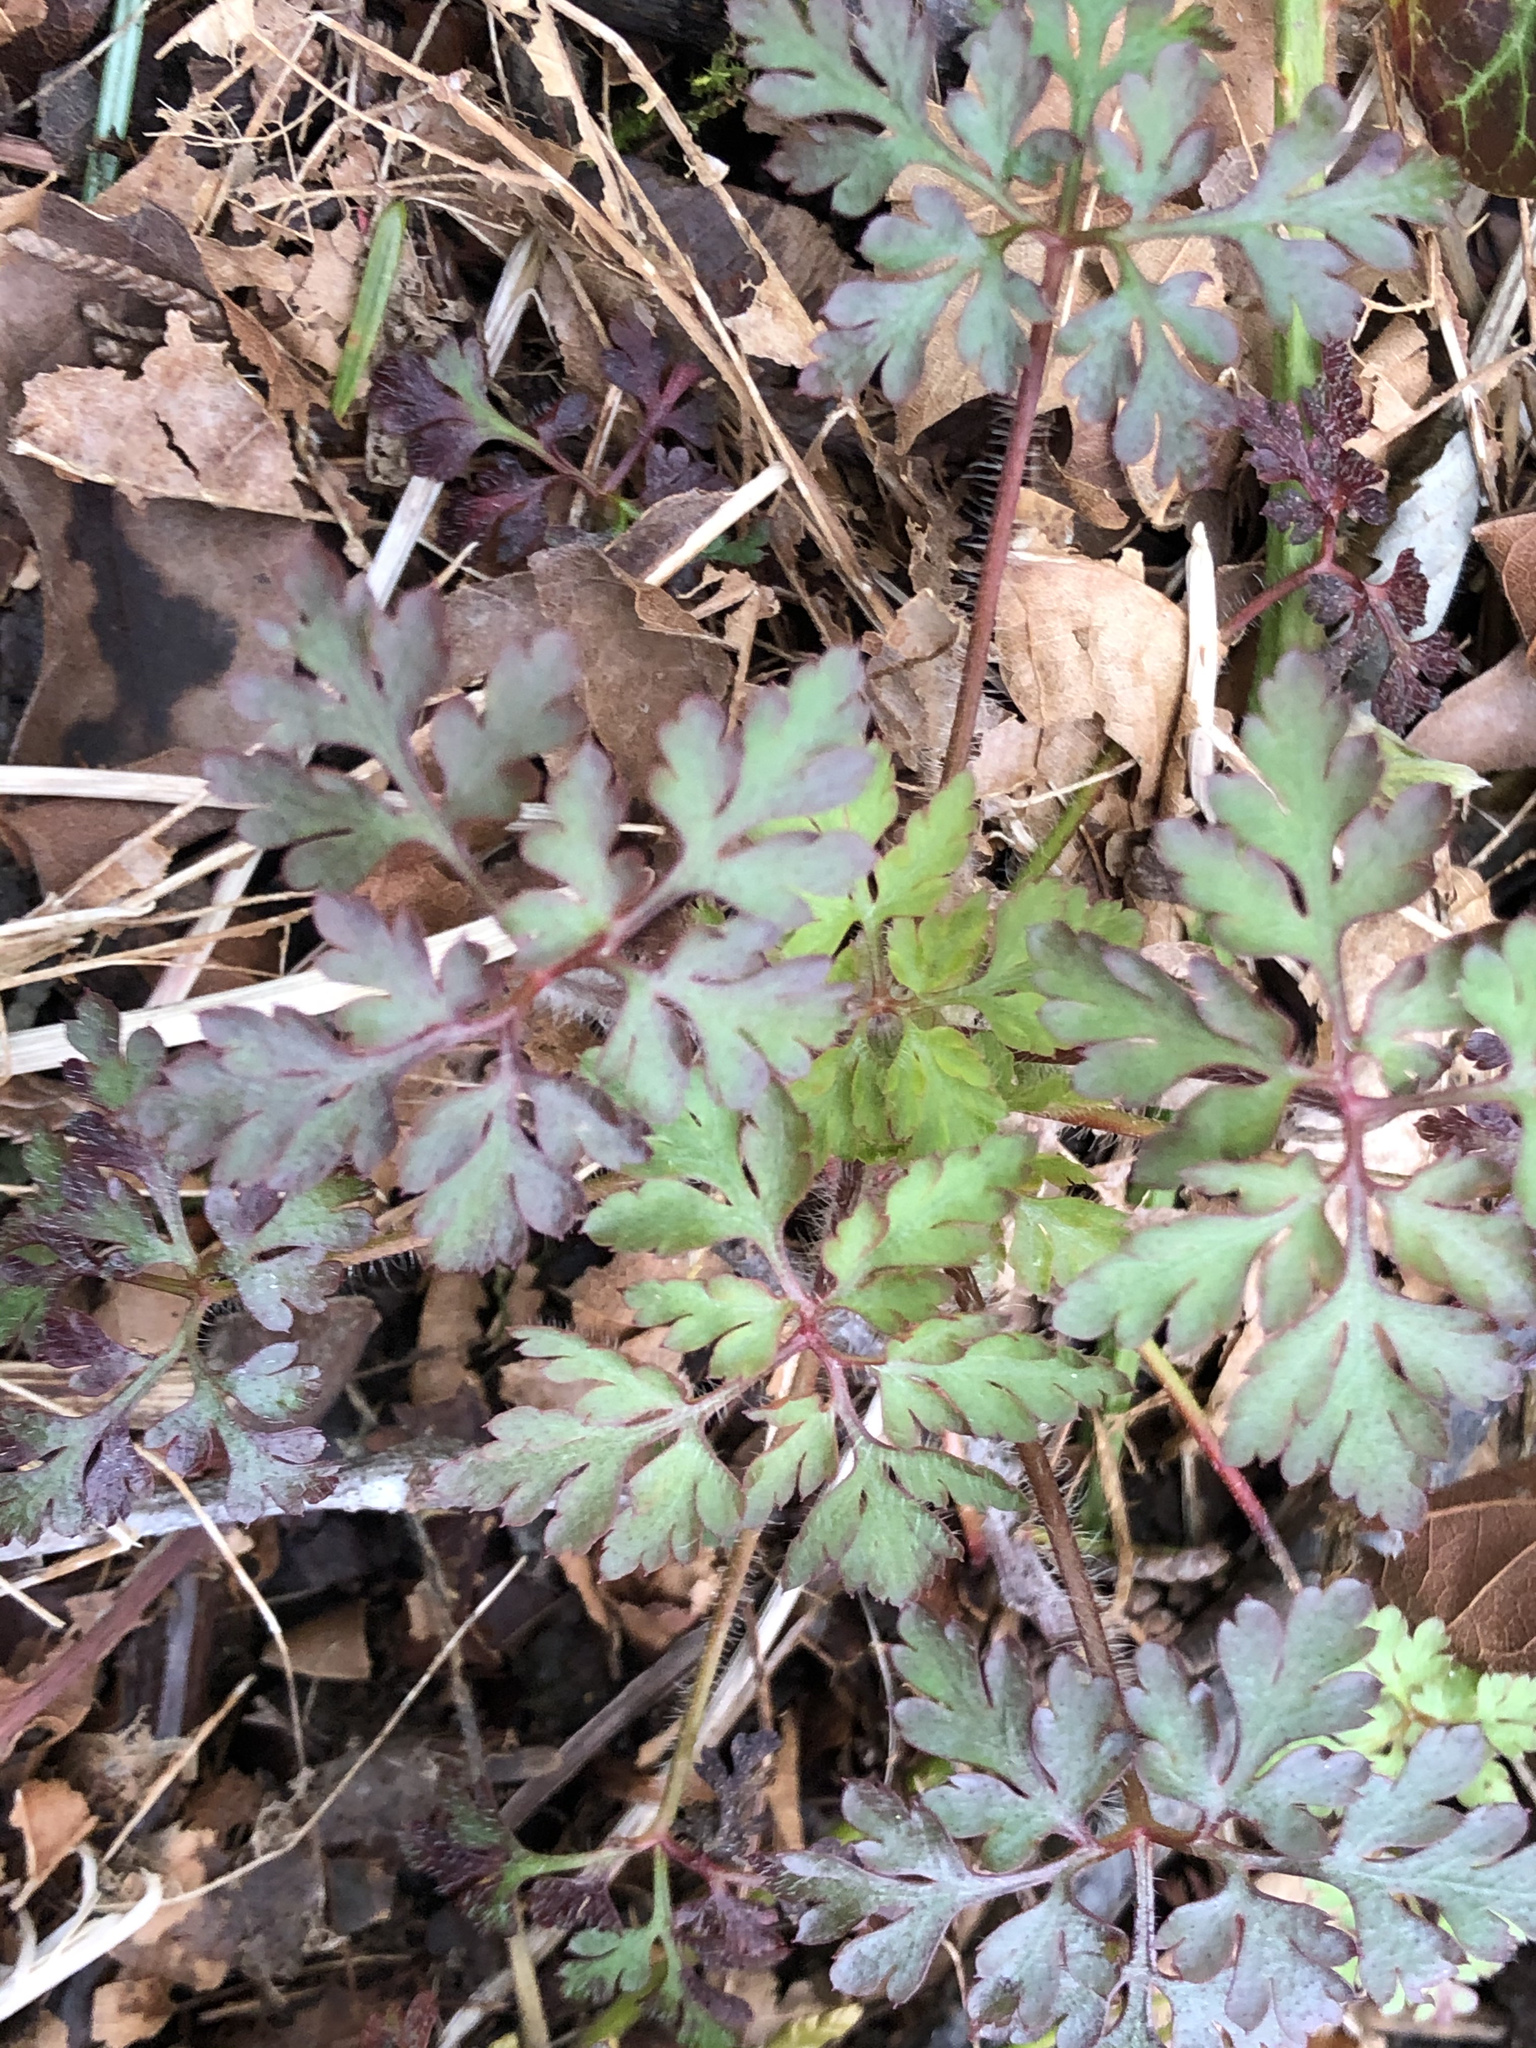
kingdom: Plantae
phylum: Tracheophyta
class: Magnoliopsida
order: Geraniales
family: Geraniaceae
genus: Geranium
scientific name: Geranium robertianum
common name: Herb-robert
